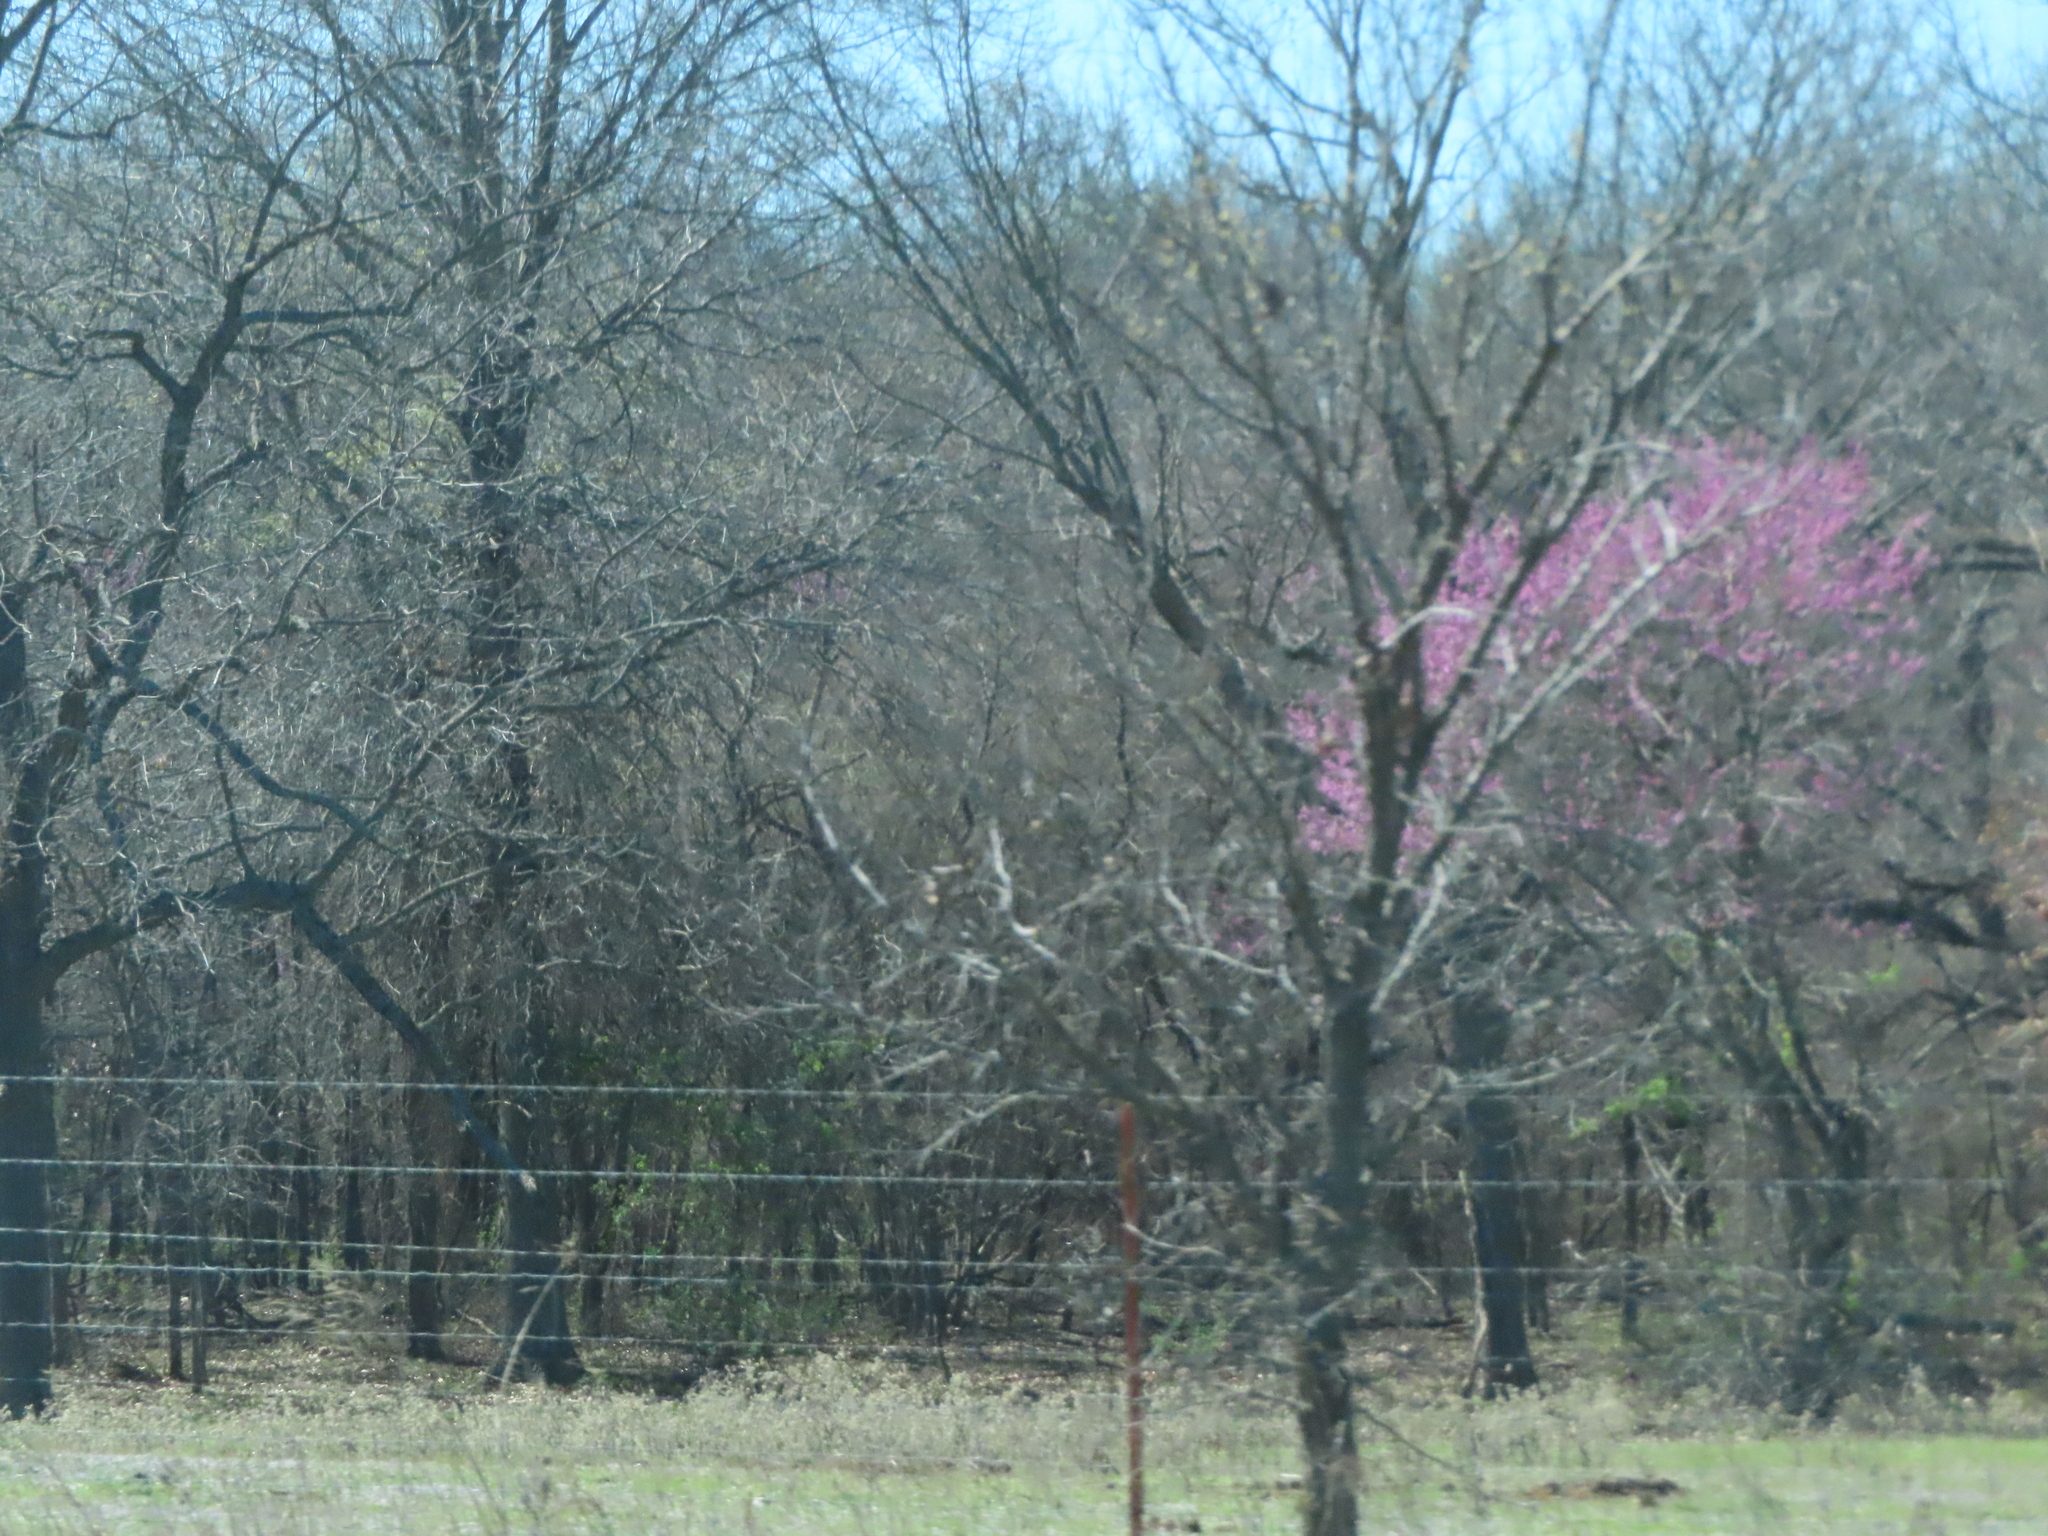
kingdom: Plantae
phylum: Tracheophyta
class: Magnoliopsida
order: Fabales
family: Fabaceae
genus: Cercis
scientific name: Cercis canadensis
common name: Eastern redbud
